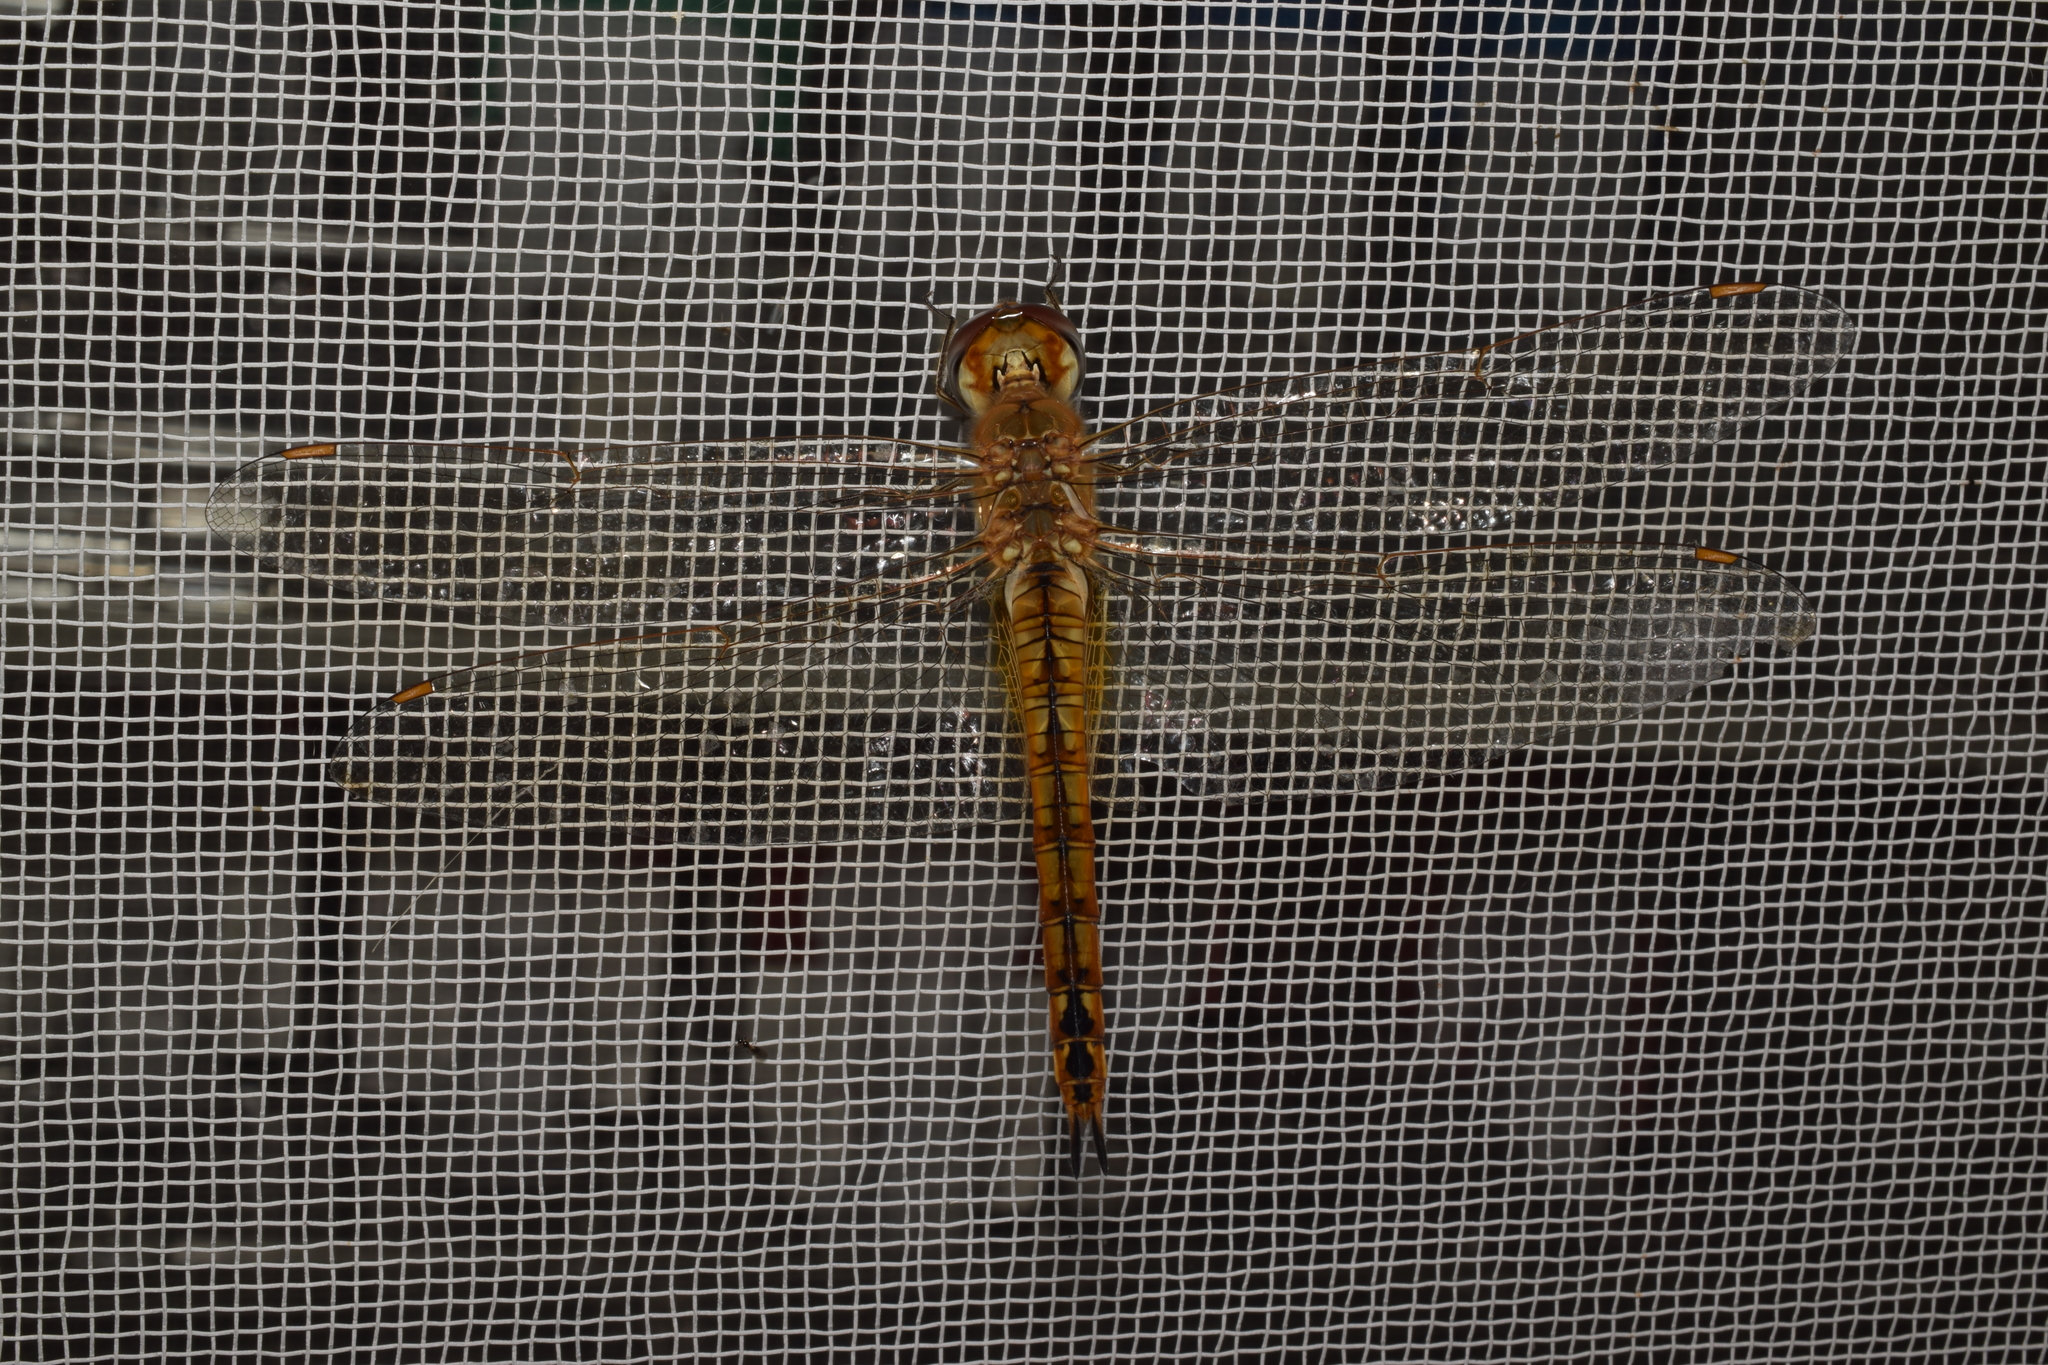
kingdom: Animalia
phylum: Arthropoda
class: Insecta
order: Odonata
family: Libellulidae
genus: Pantala
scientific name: Pantala flavescens
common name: Wandering glider
